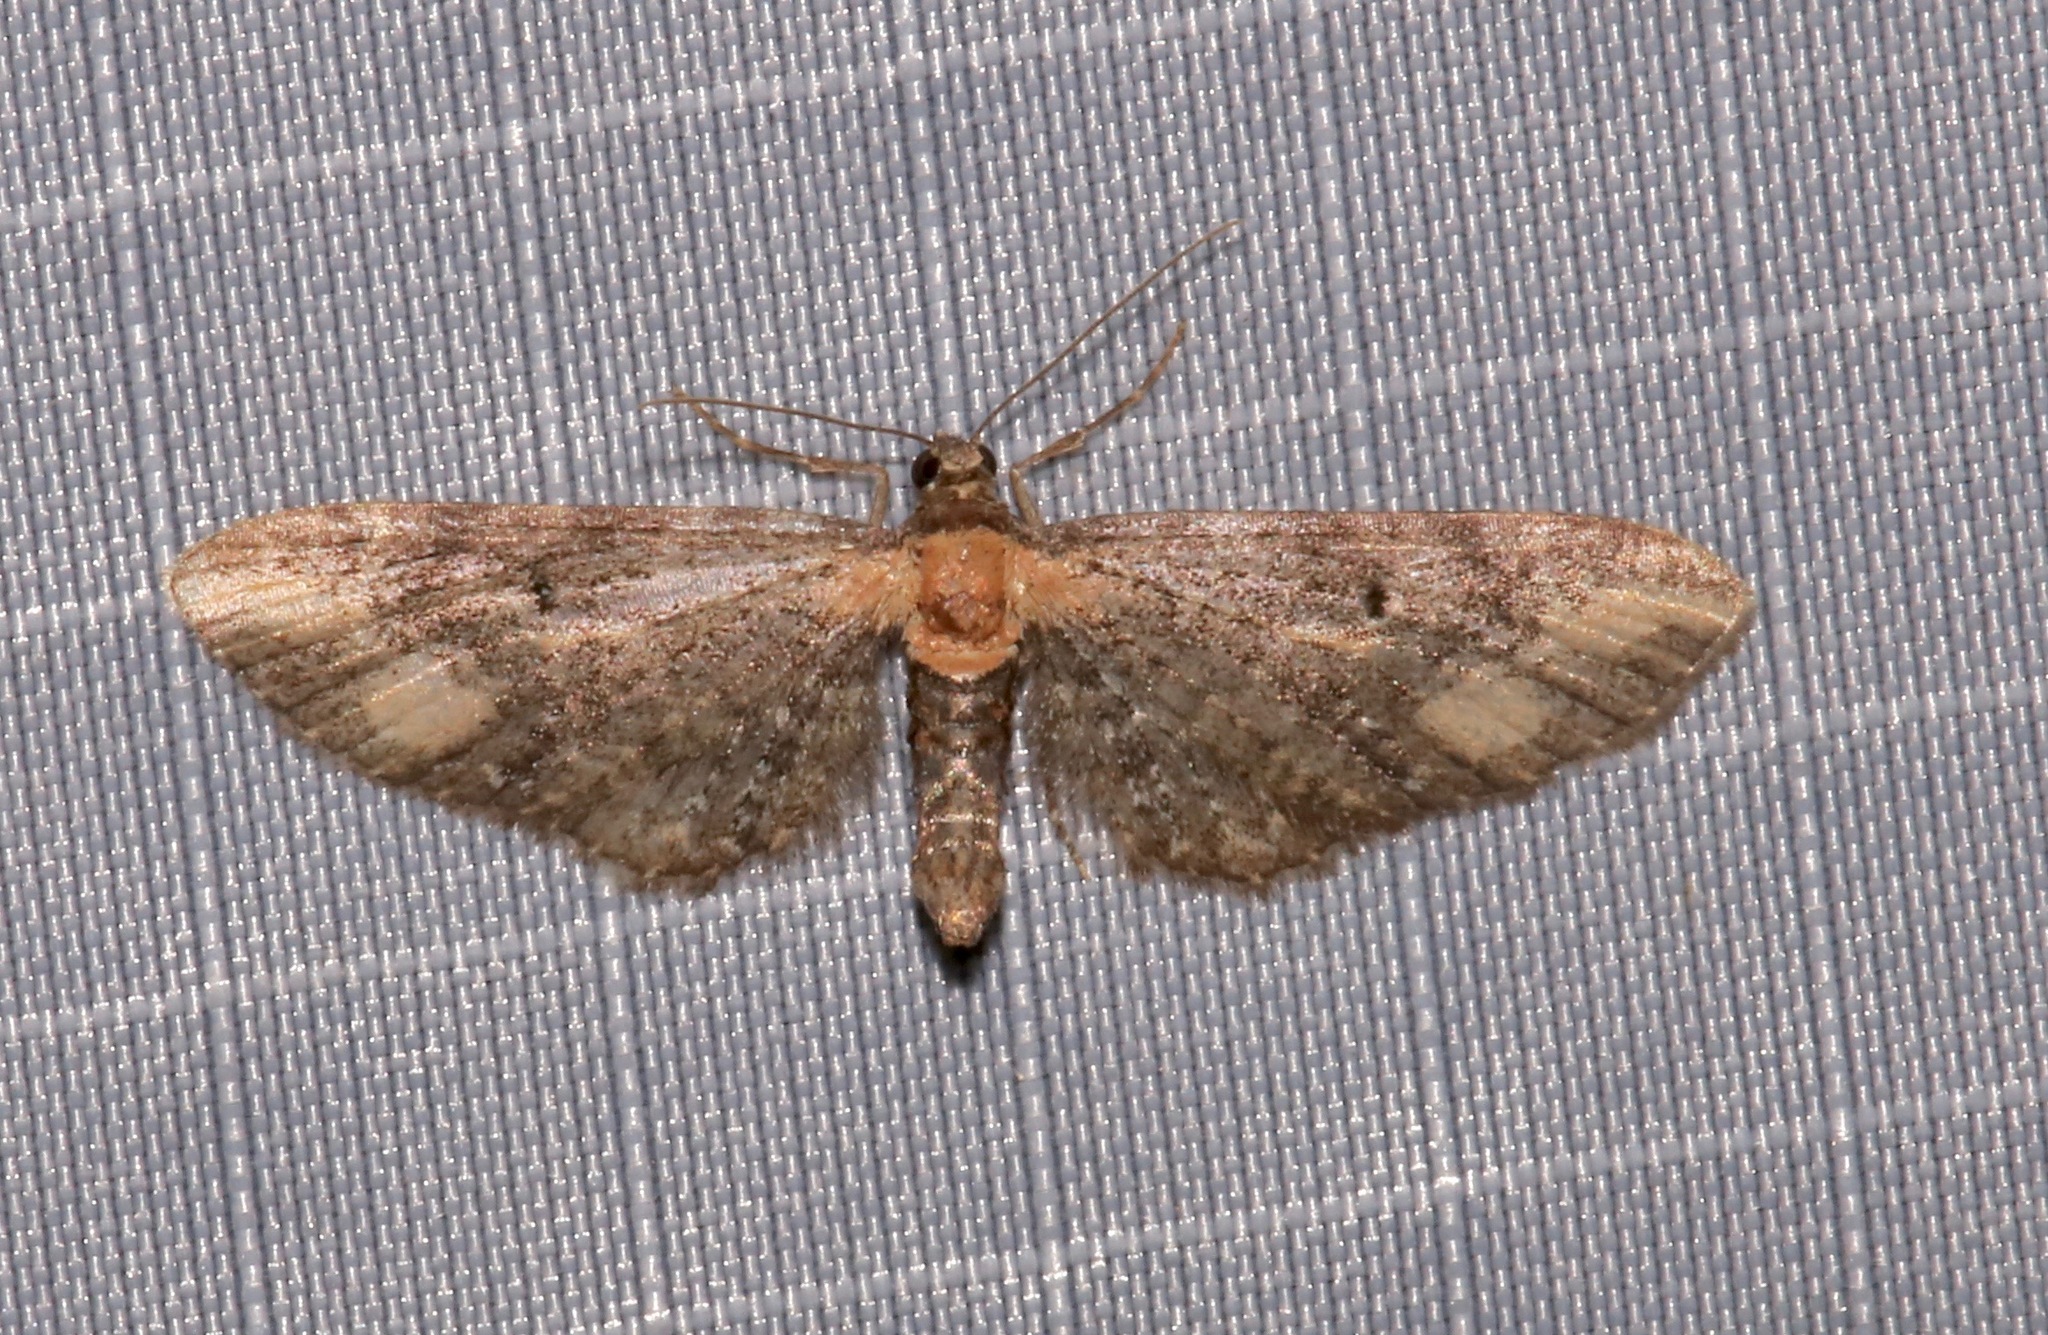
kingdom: Animalia
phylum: Arthropoda
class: Insecta
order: Lepidoptera
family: Geometridae
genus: Eupithecia
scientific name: Eupithecia flavigutta
